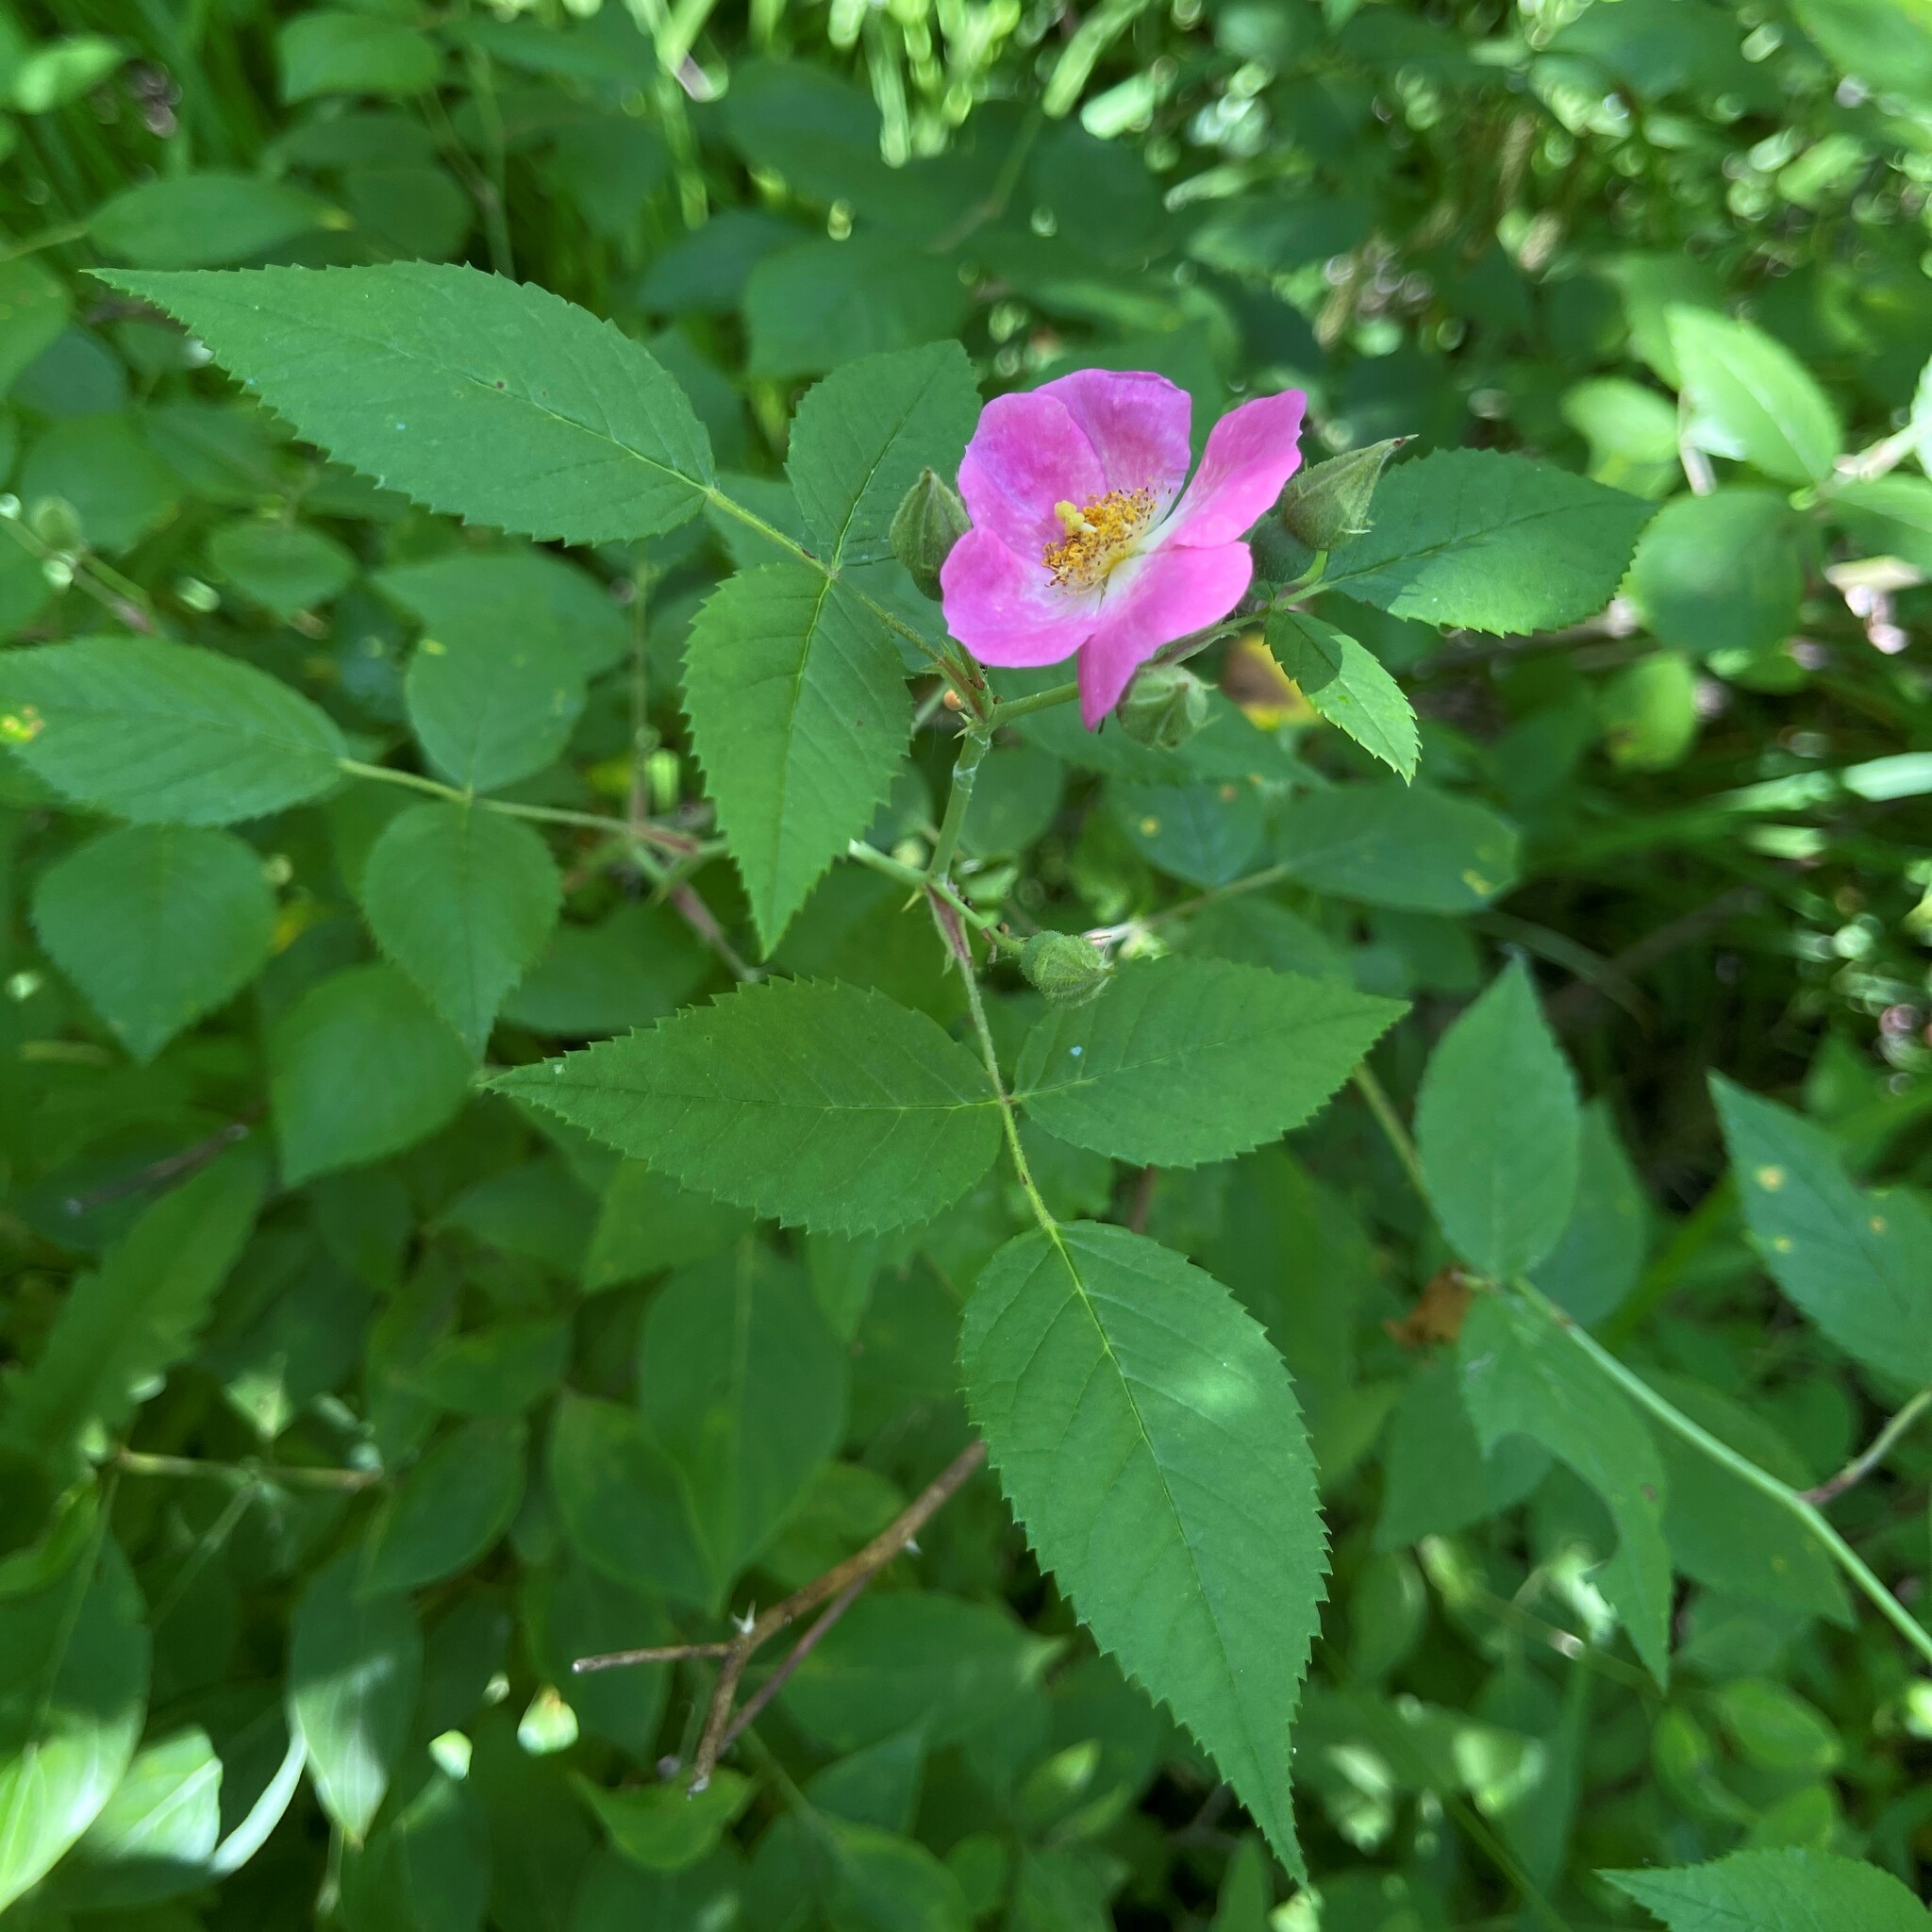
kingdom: Plantae
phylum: Tracheophyta
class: Magnoliopsida
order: Rosales
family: Rosaceae
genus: Rosa
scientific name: Rosa setigera
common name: Prairie rose
